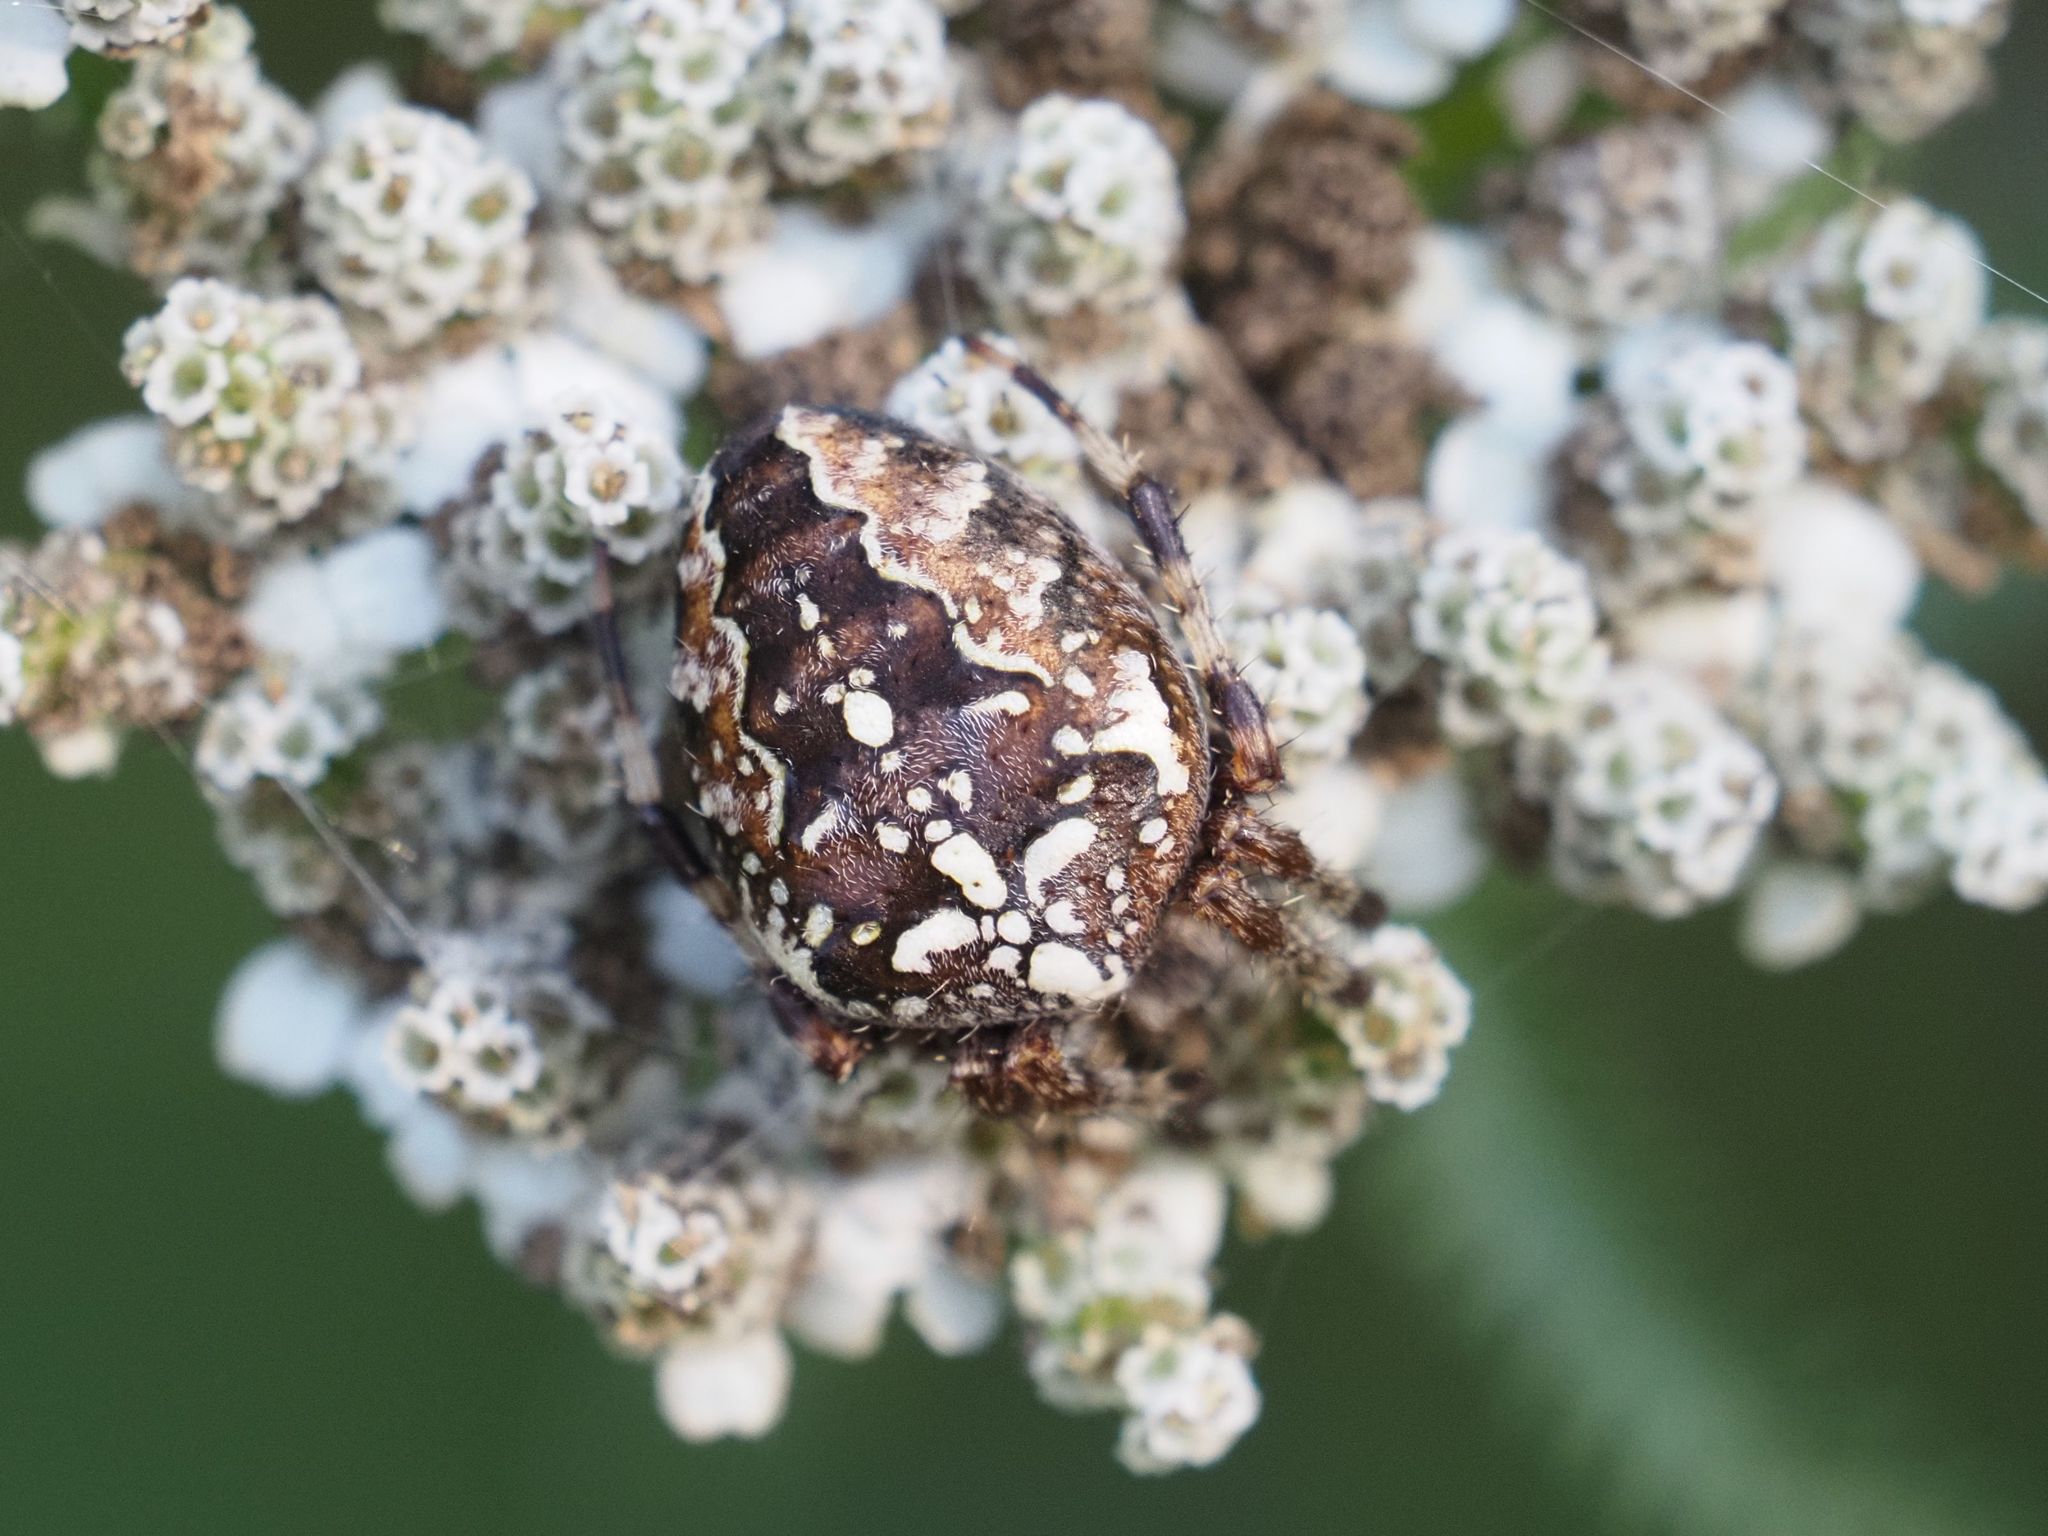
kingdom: Animalia
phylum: Arthropoda
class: Arachnida
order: Araneae
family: Araneidae
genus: Araneus
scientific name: Araneus diadematus
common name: Cross orbweaver
